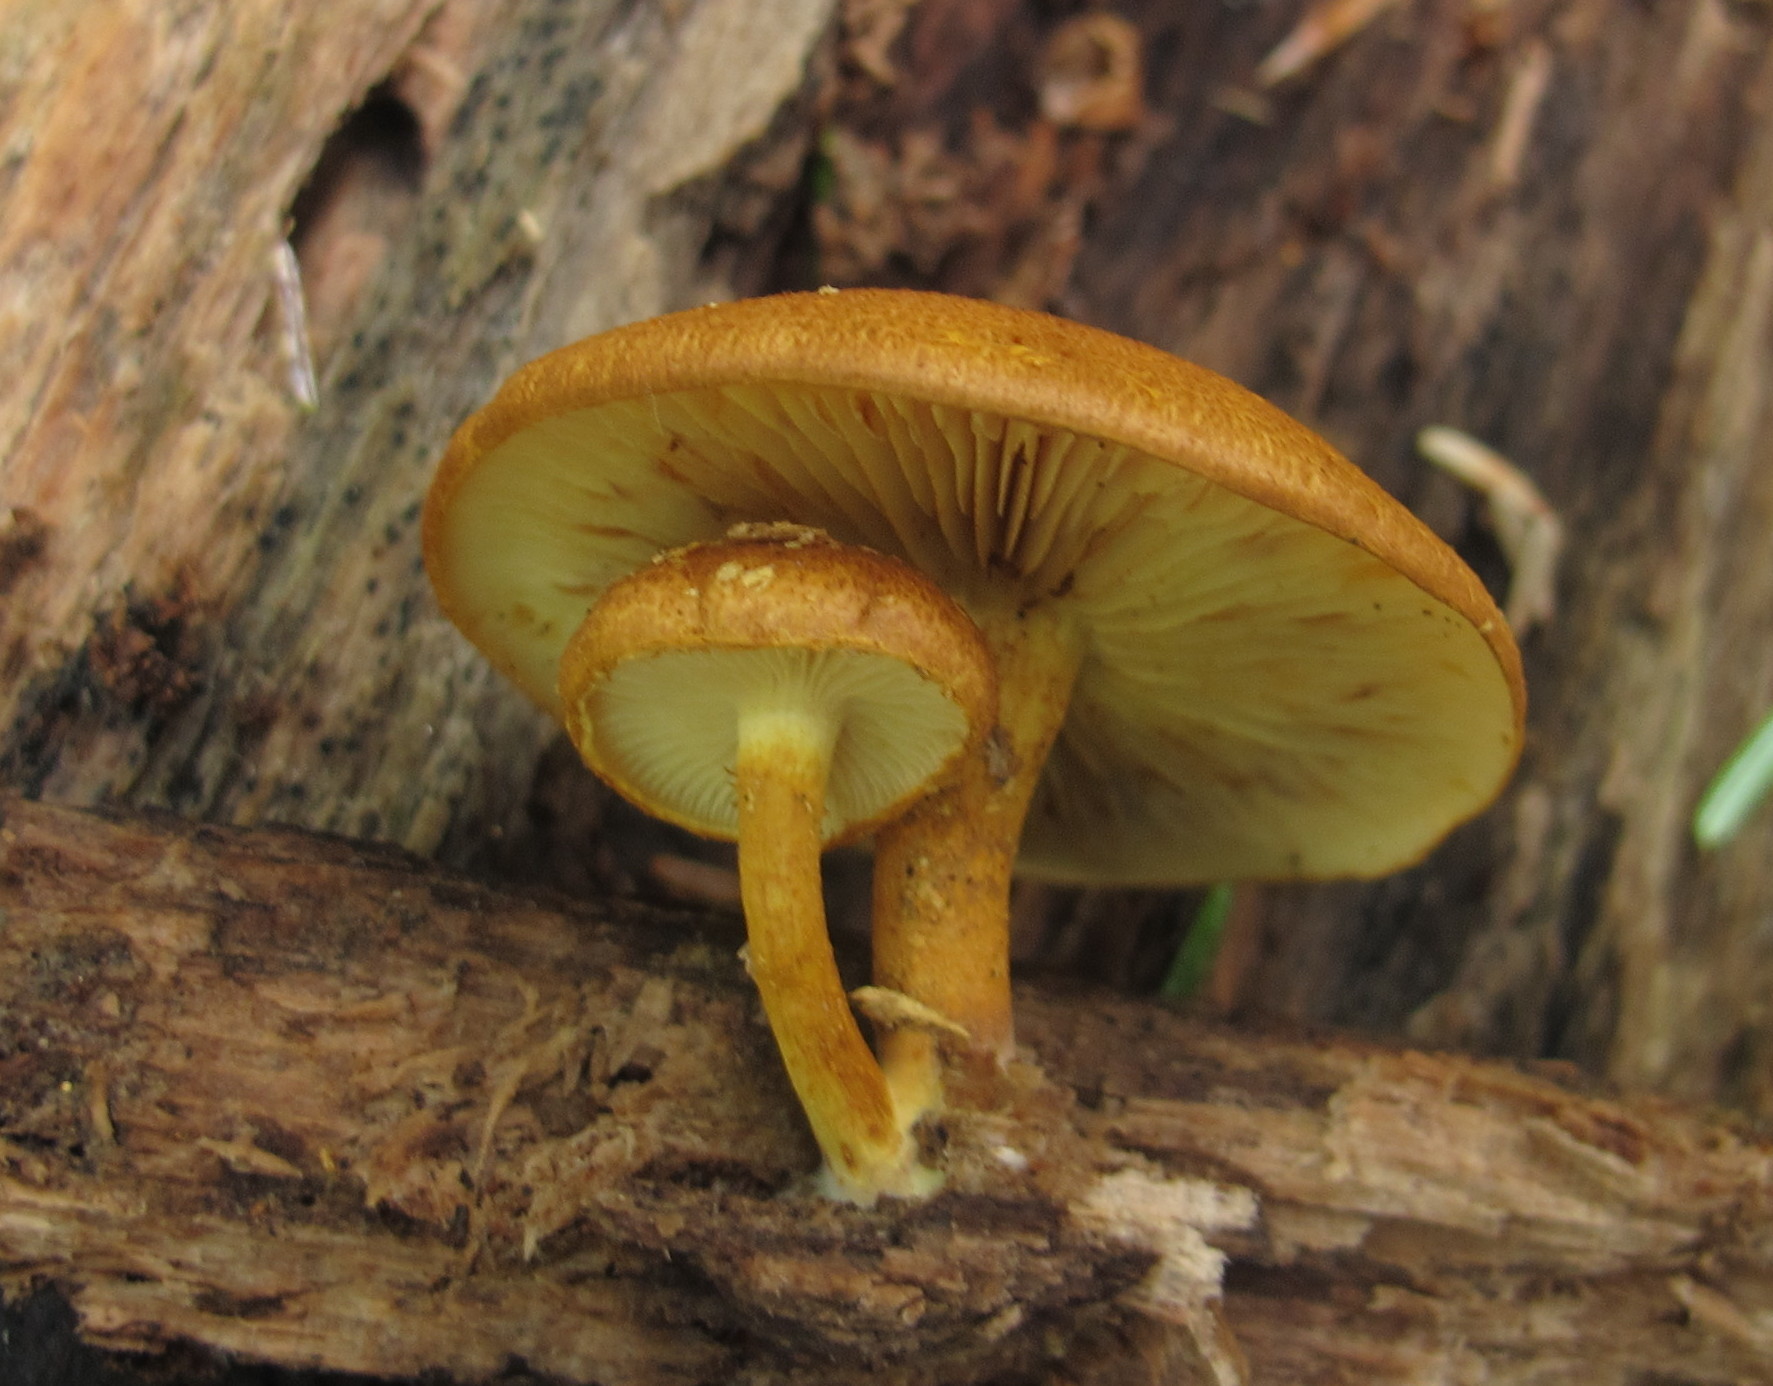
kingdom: Fungi
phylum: Basidiomycota
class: Agaricomycetes
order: Agaricales
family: Strophariaceae
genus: Pholiota
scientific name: Pholiota granulosa
